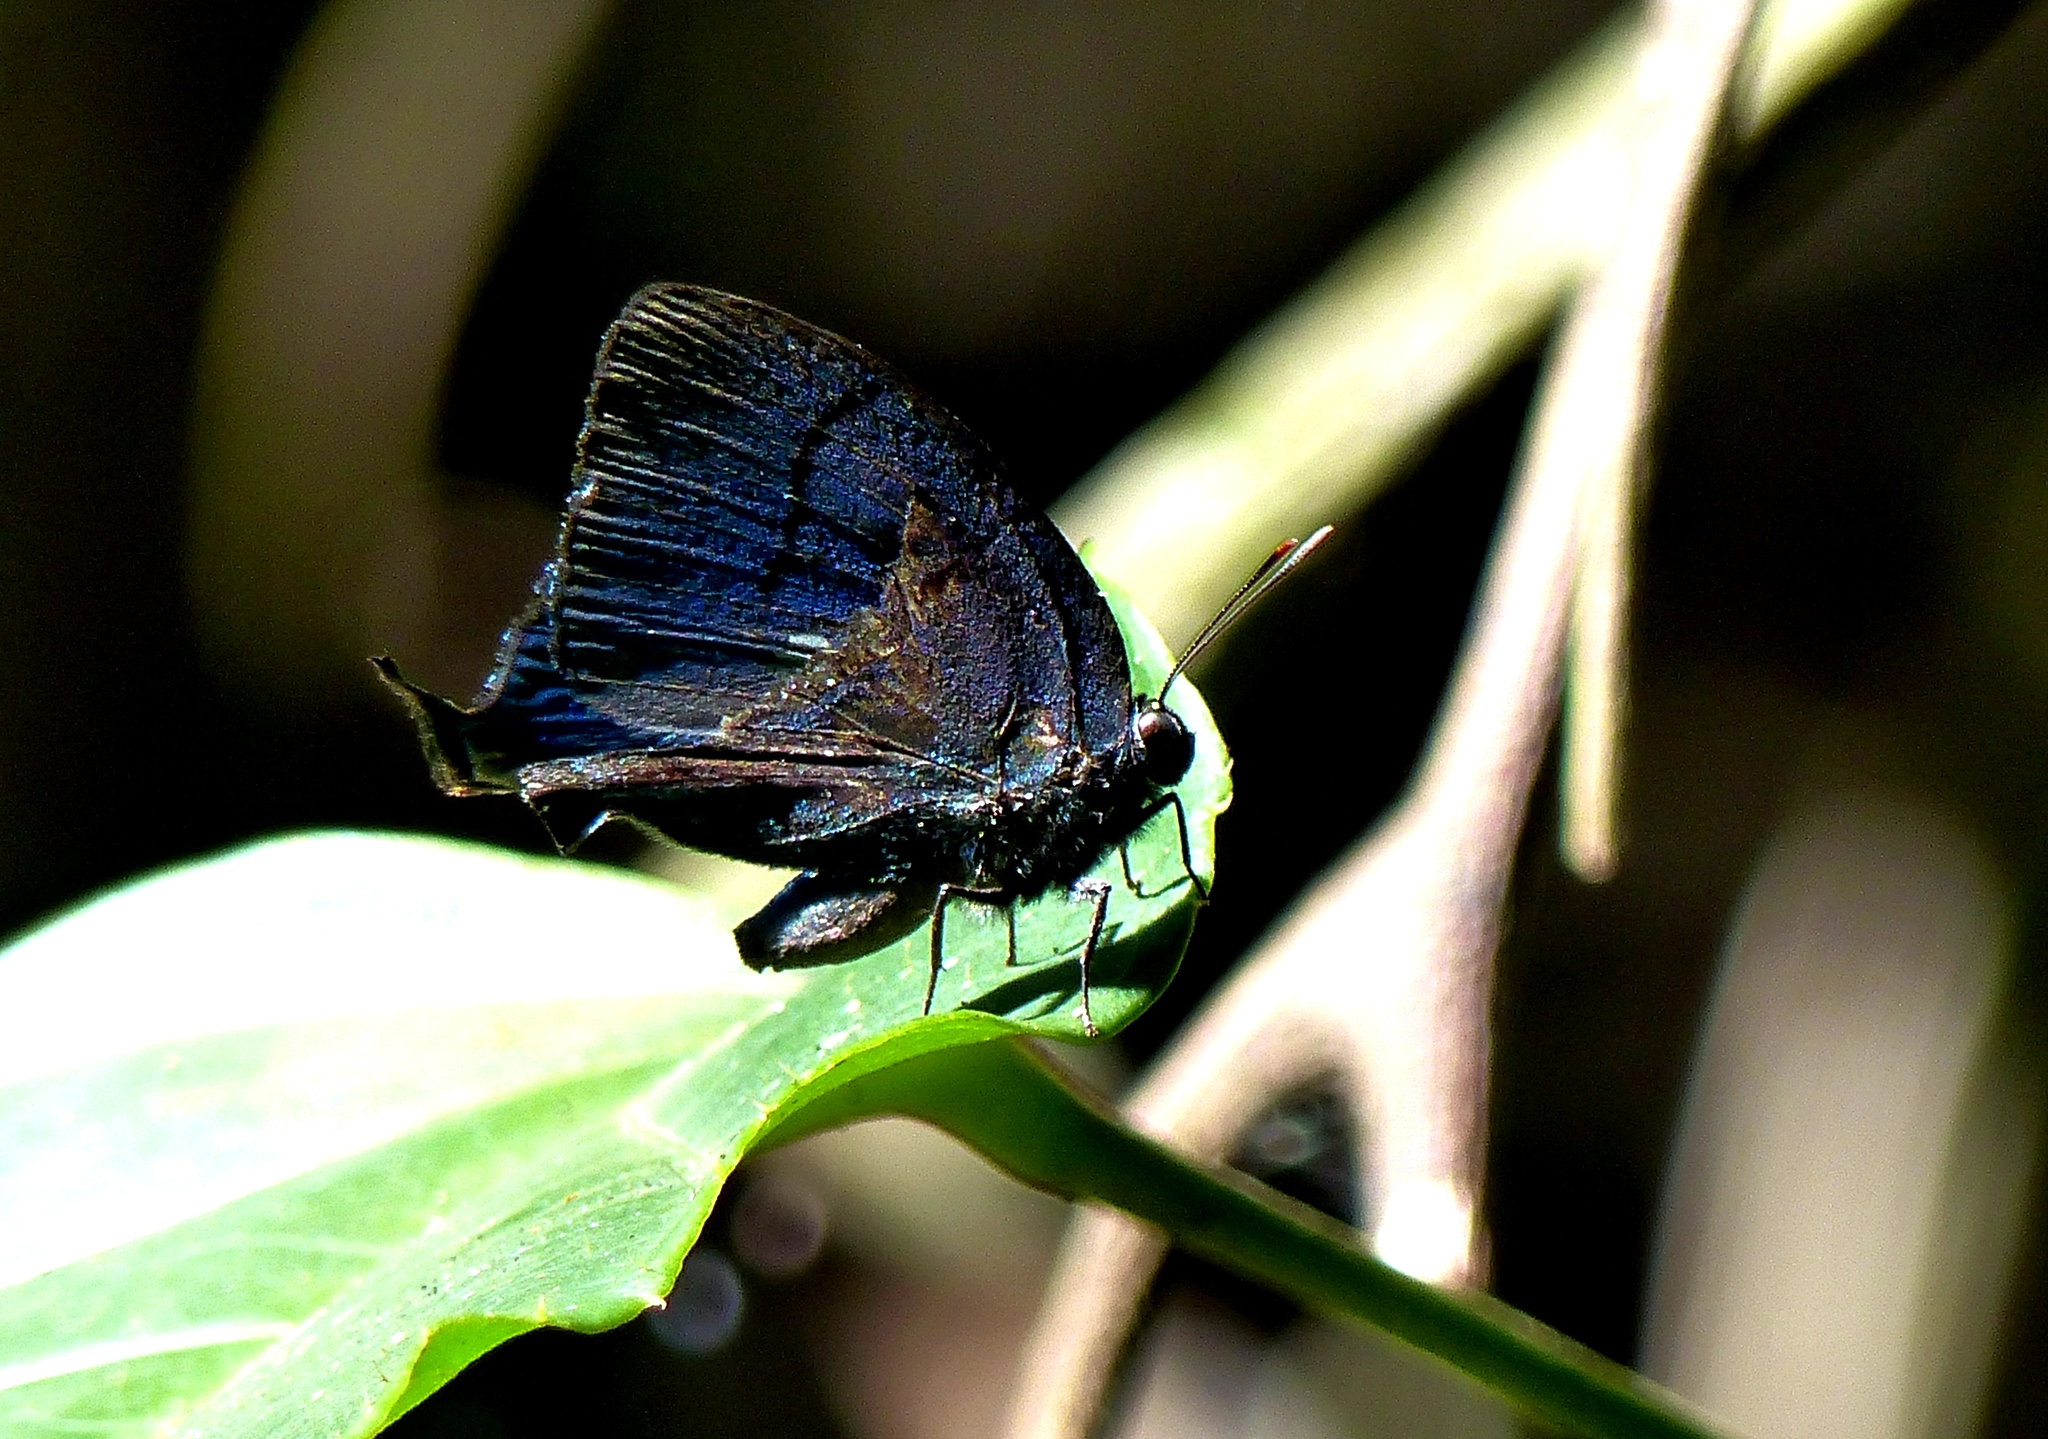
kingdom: Animalia
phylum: Arthropoda
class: Insecta
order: Lepidoptera
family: Lycaenidae
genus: Theritas
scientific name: Theritas
